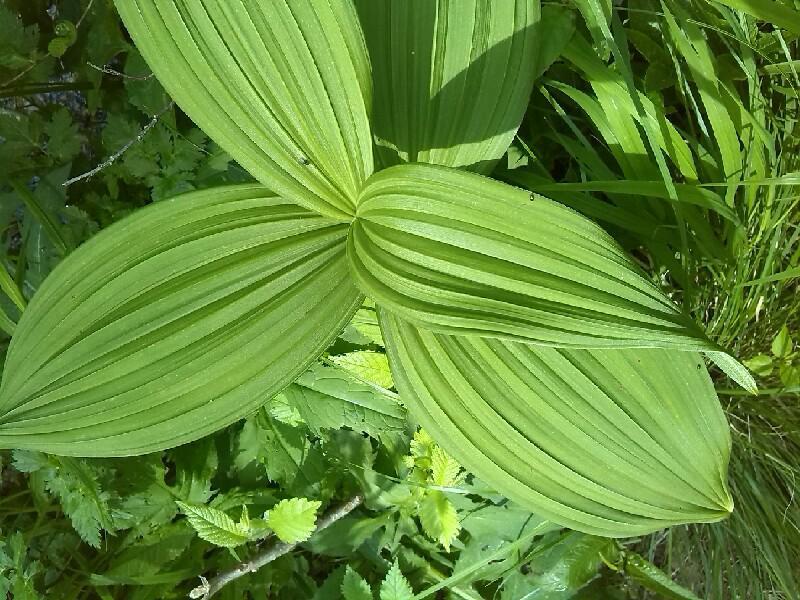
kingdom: Plantae
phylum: Tracheophyta
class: Liliopsida
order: Liliales
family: Melanthiaceae
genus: Veratrum
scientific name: Veratrum album
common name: White veratrum
